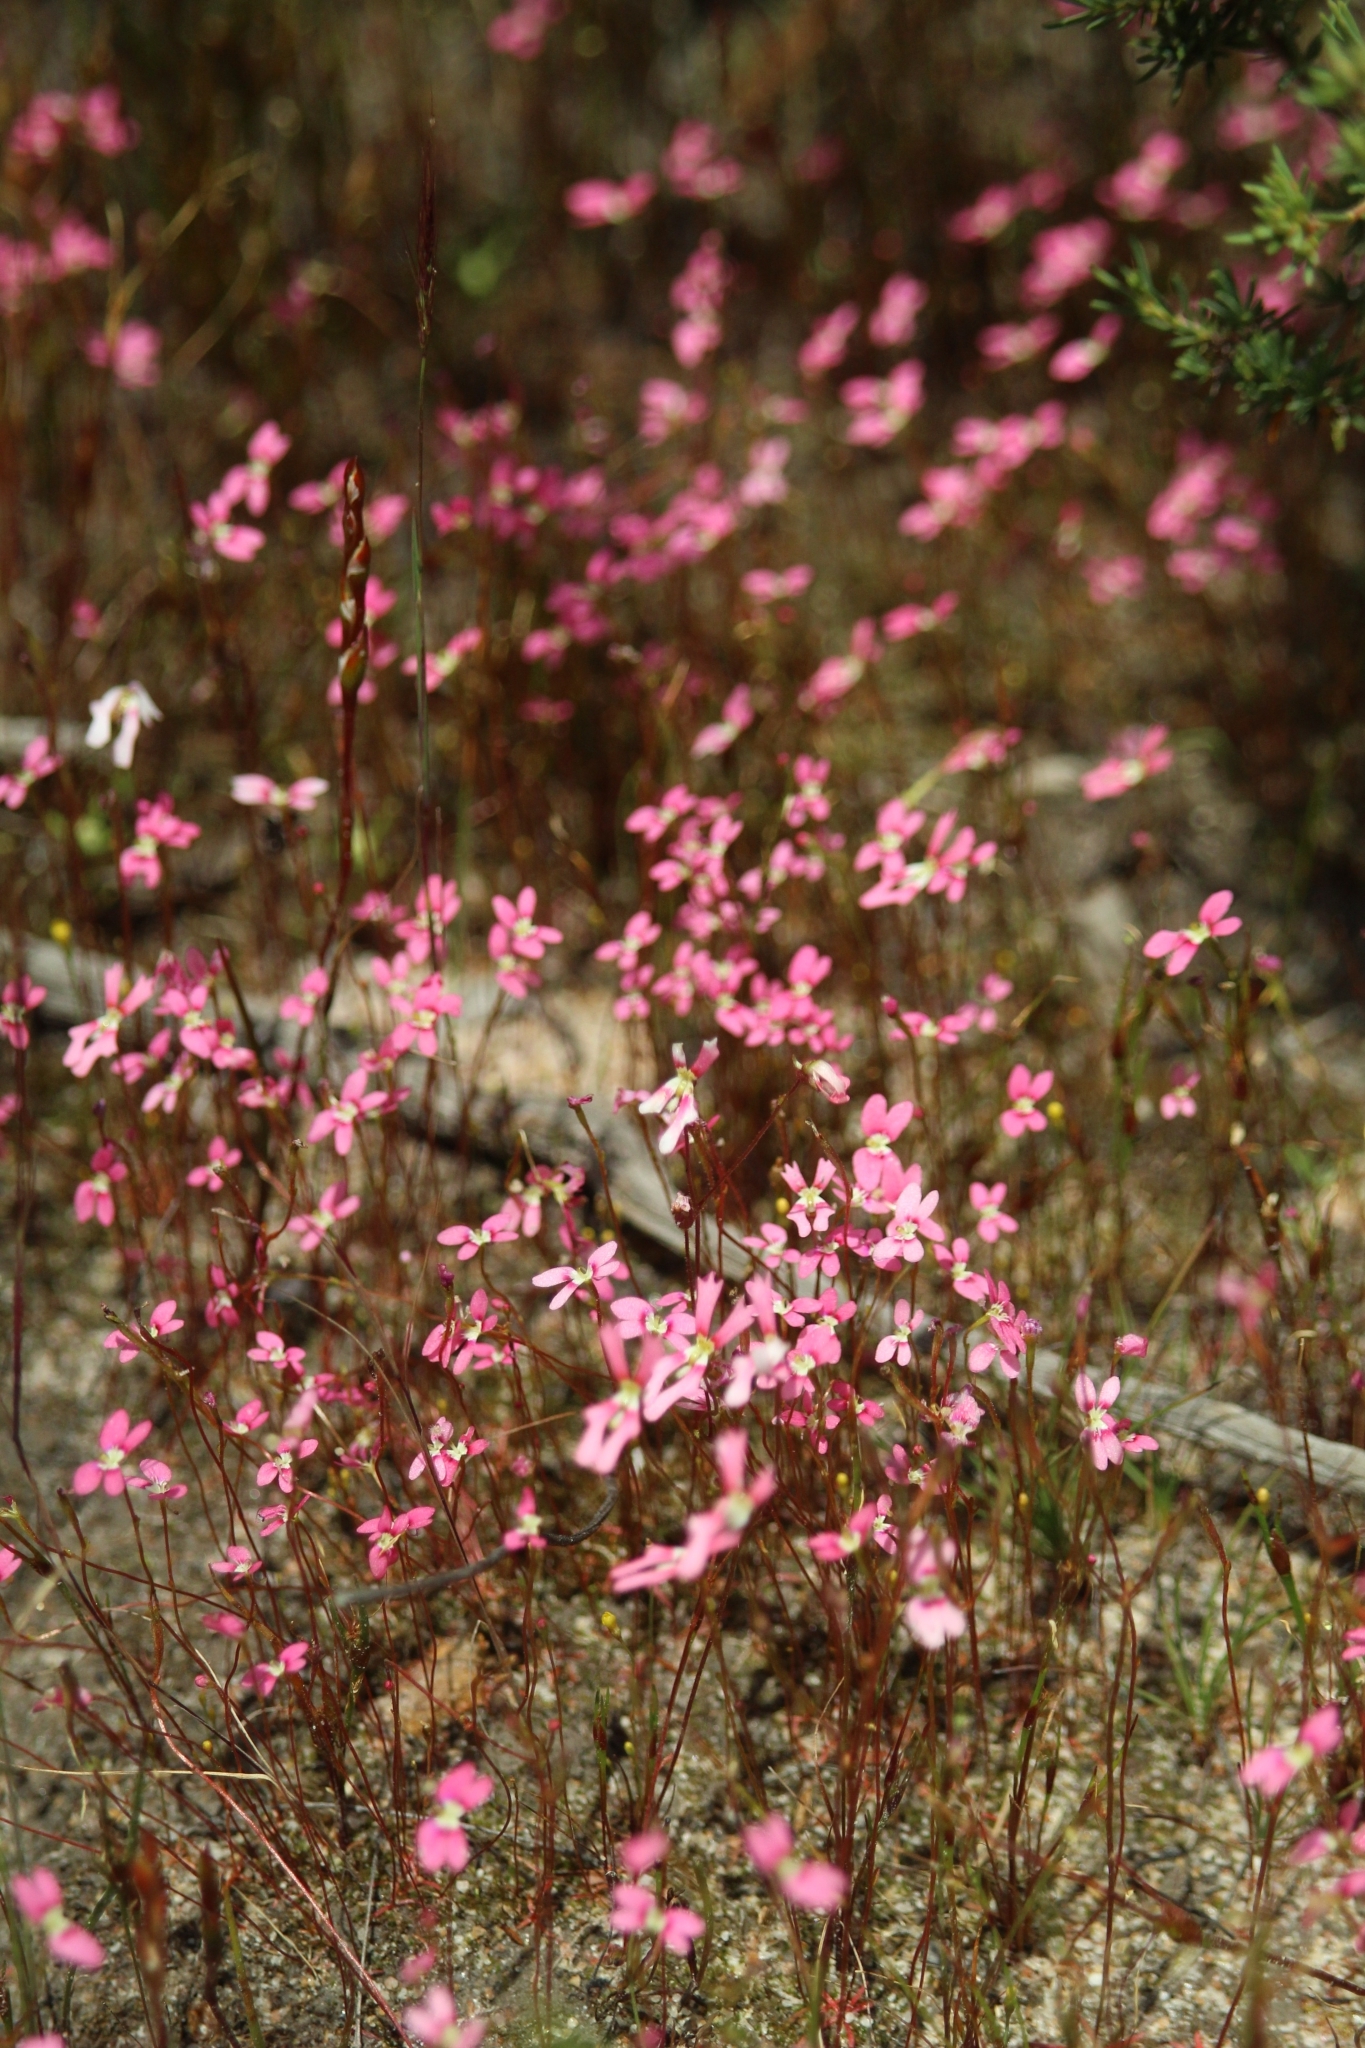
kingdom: Plantae
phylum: Tracheophyta
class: Magnoliopsida
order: Asterales
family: Stylidiaceae
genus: Stylidium
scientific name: Stylidium roseoalatum
